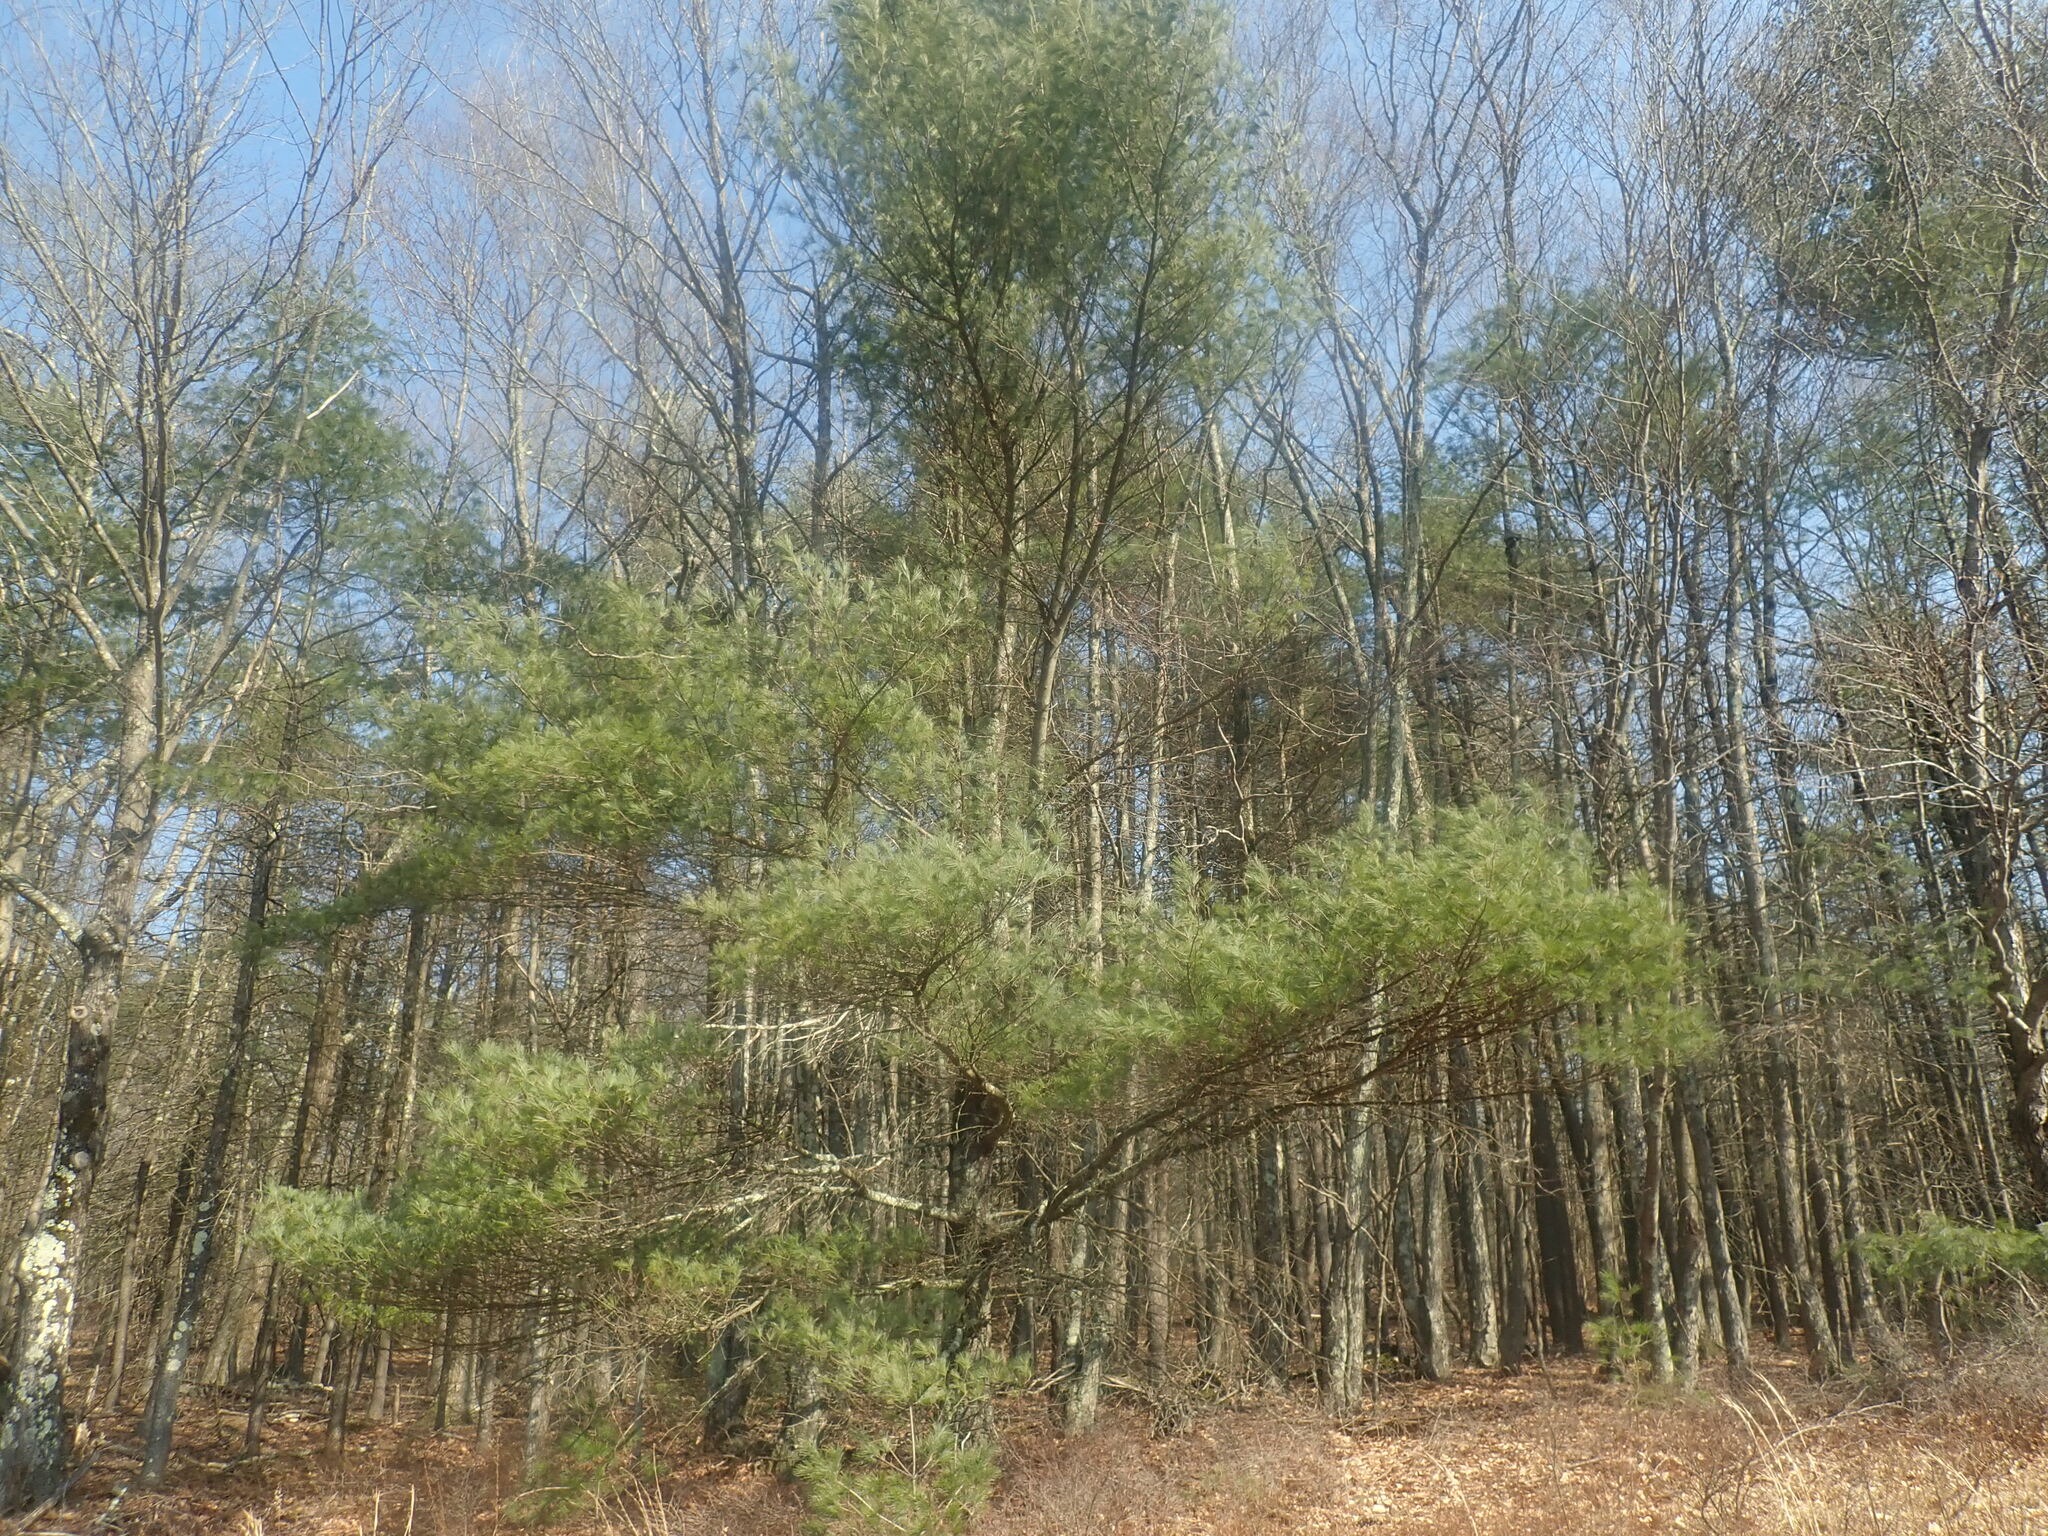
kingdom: Plantae
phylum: Tracheophyta
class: Pinopsida
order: Pinales
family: Pinaceae
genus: Pinus
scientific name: Pinus strobus
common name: Weymouth pine
